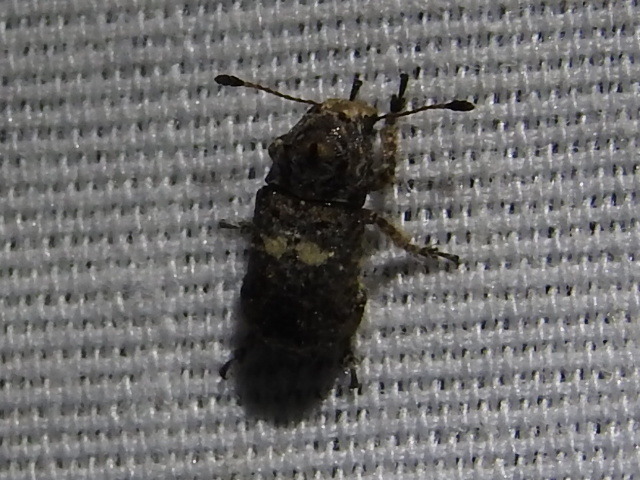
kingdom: Animalia
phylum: Arthropoda
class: Insecta
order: Coleoptera
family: Anthribidae
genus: Toxonotus
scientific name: Toxonotus cornutus
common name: Fungus weevil
